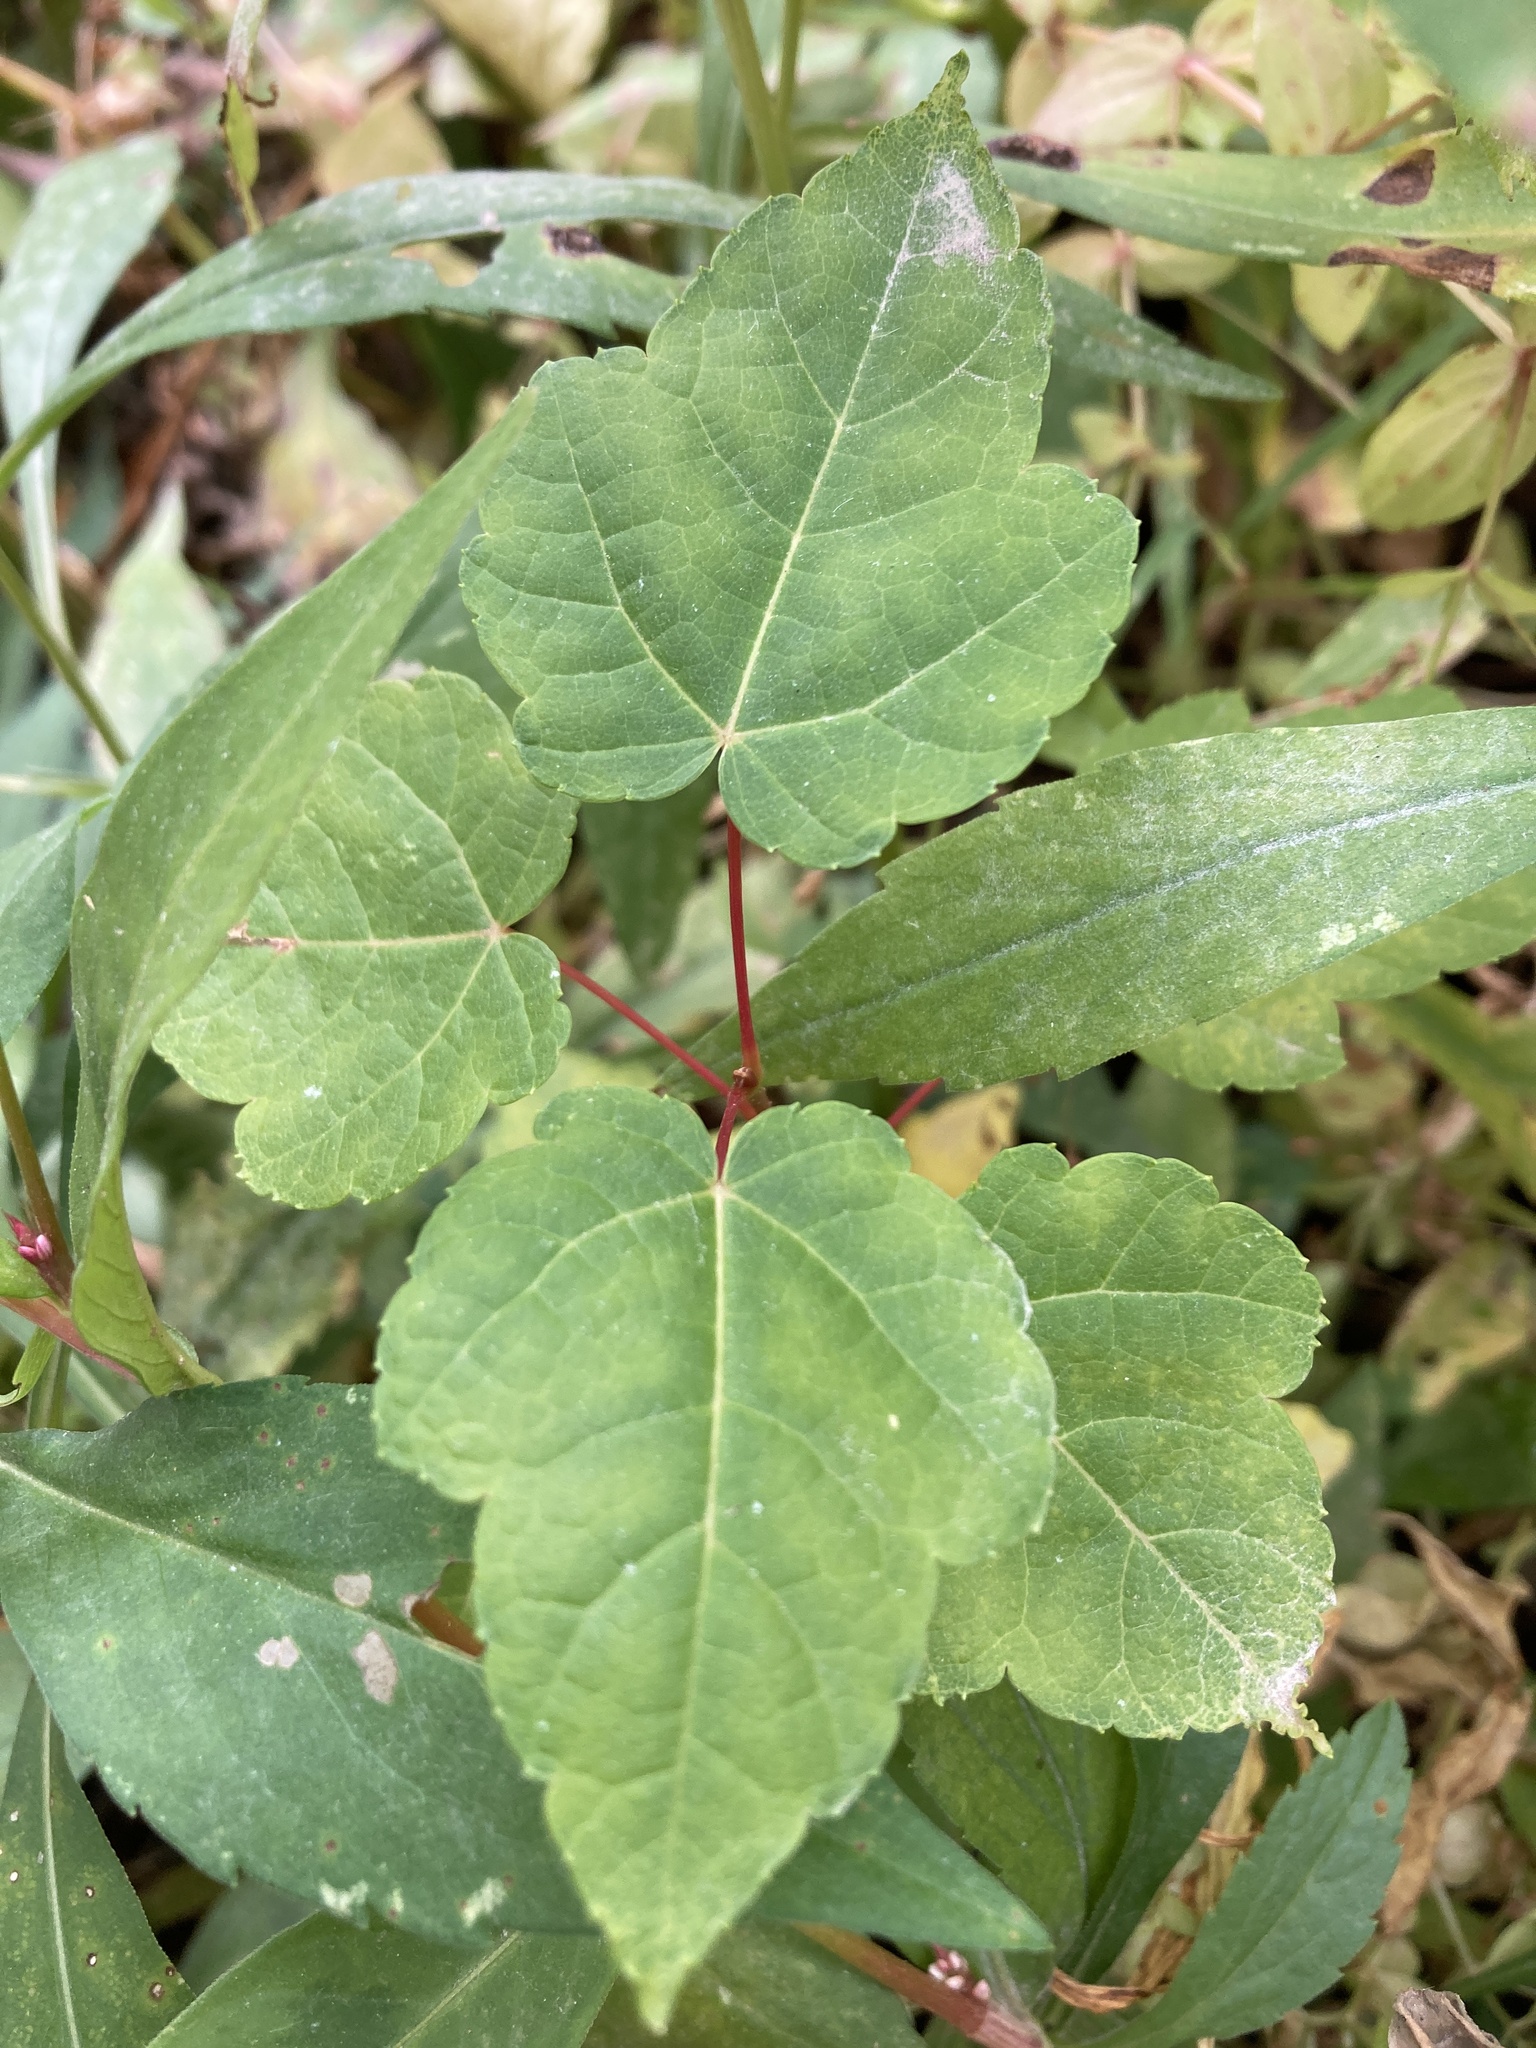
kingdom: Plantae
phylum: Tracheophyta
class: Magnoliopsida
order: Sapindales
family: Sapindaceae
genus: Acer
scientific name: Acer rubrum
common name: Red maple
